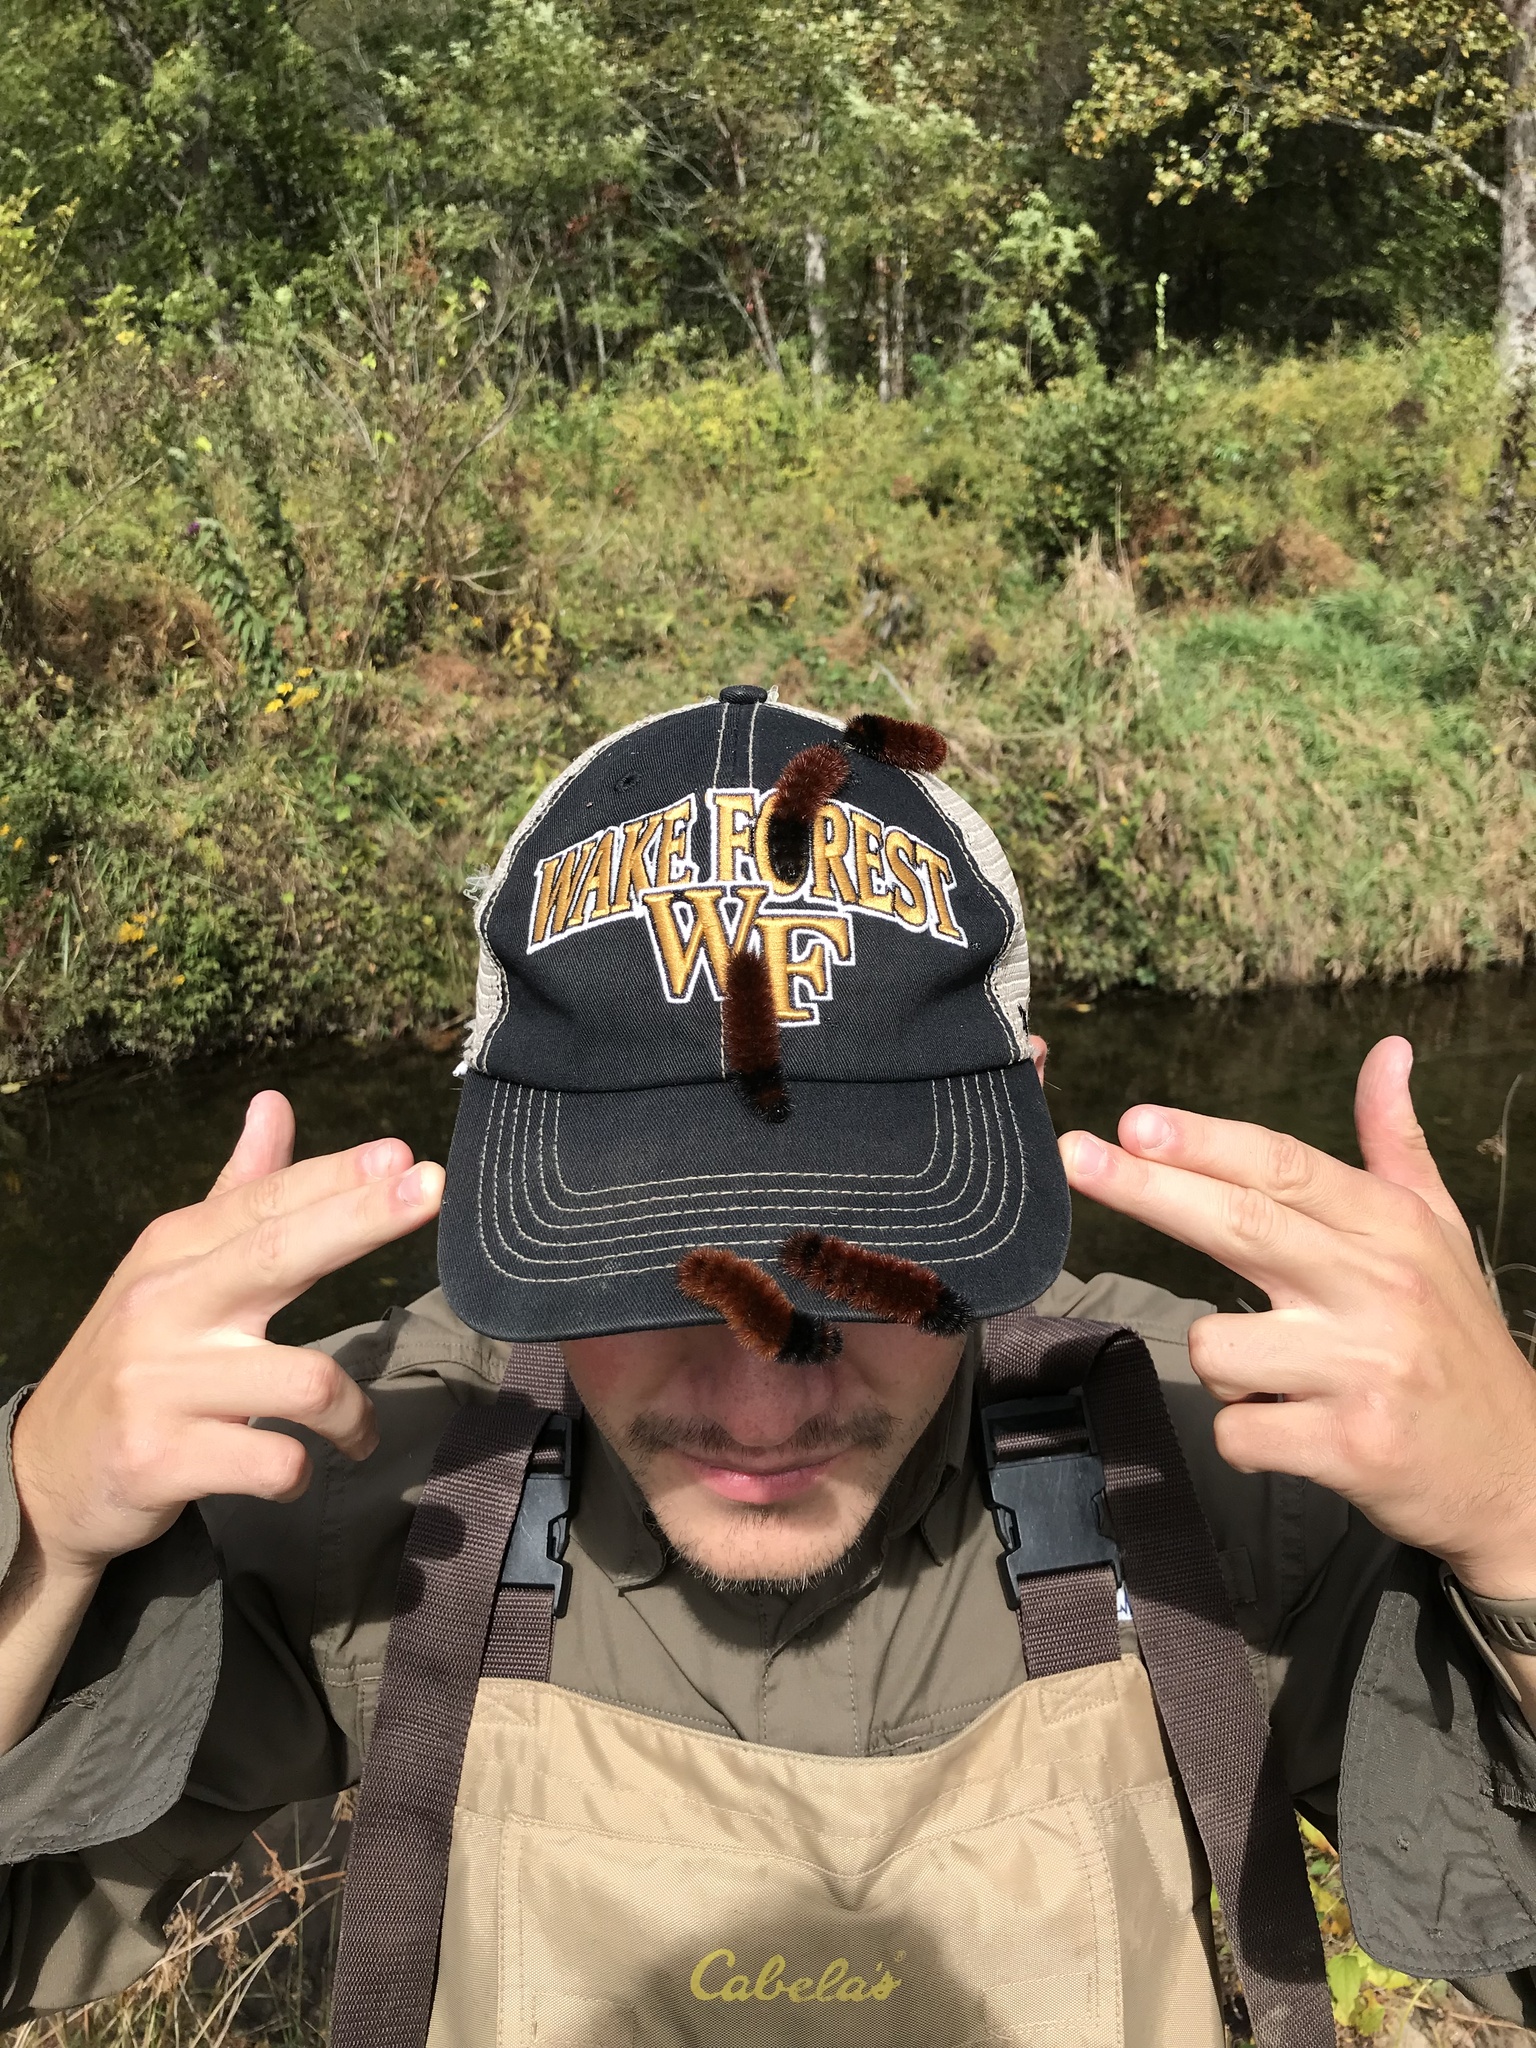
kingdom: Animalia
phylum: Arthropoda
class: Insecta
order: Lepidoptera
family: Erebidae
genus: Pyrrharctia
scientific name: Pyrrharctia isabella
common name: Isabella tiger moth
